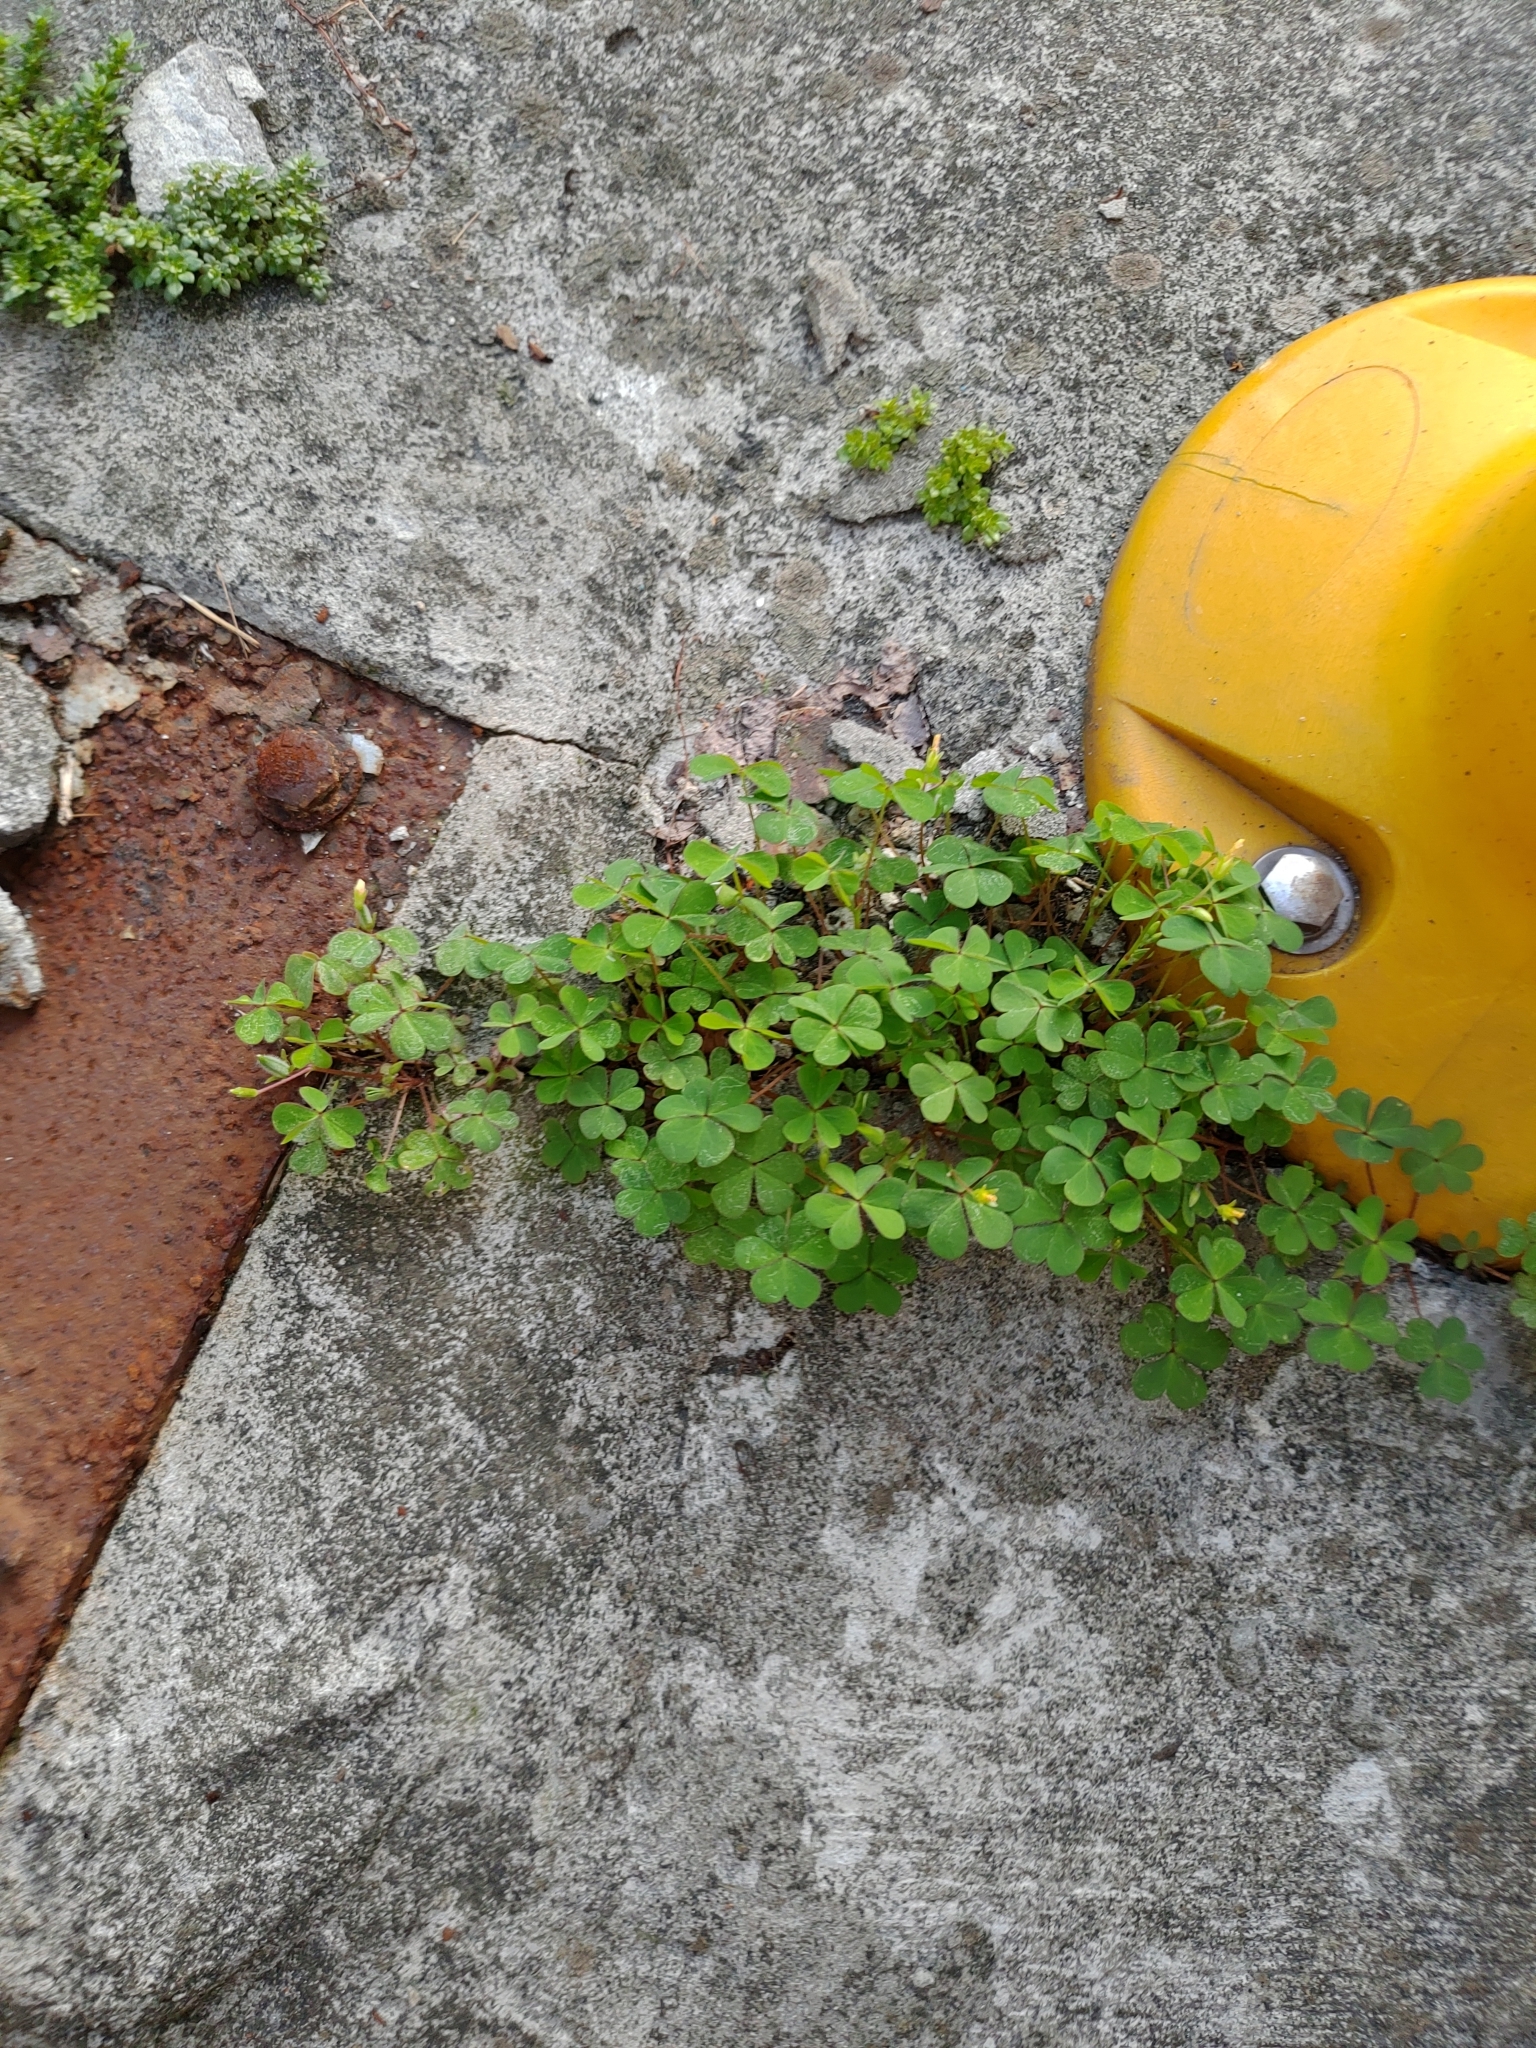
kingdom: Plantae
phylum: Tracheophyta
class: Magnoliopsida
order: Oxalidales
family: Oxalidaceae
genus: Oxalis
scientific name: Oxalis corniculata
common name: Procumbent yellow-sorrel
